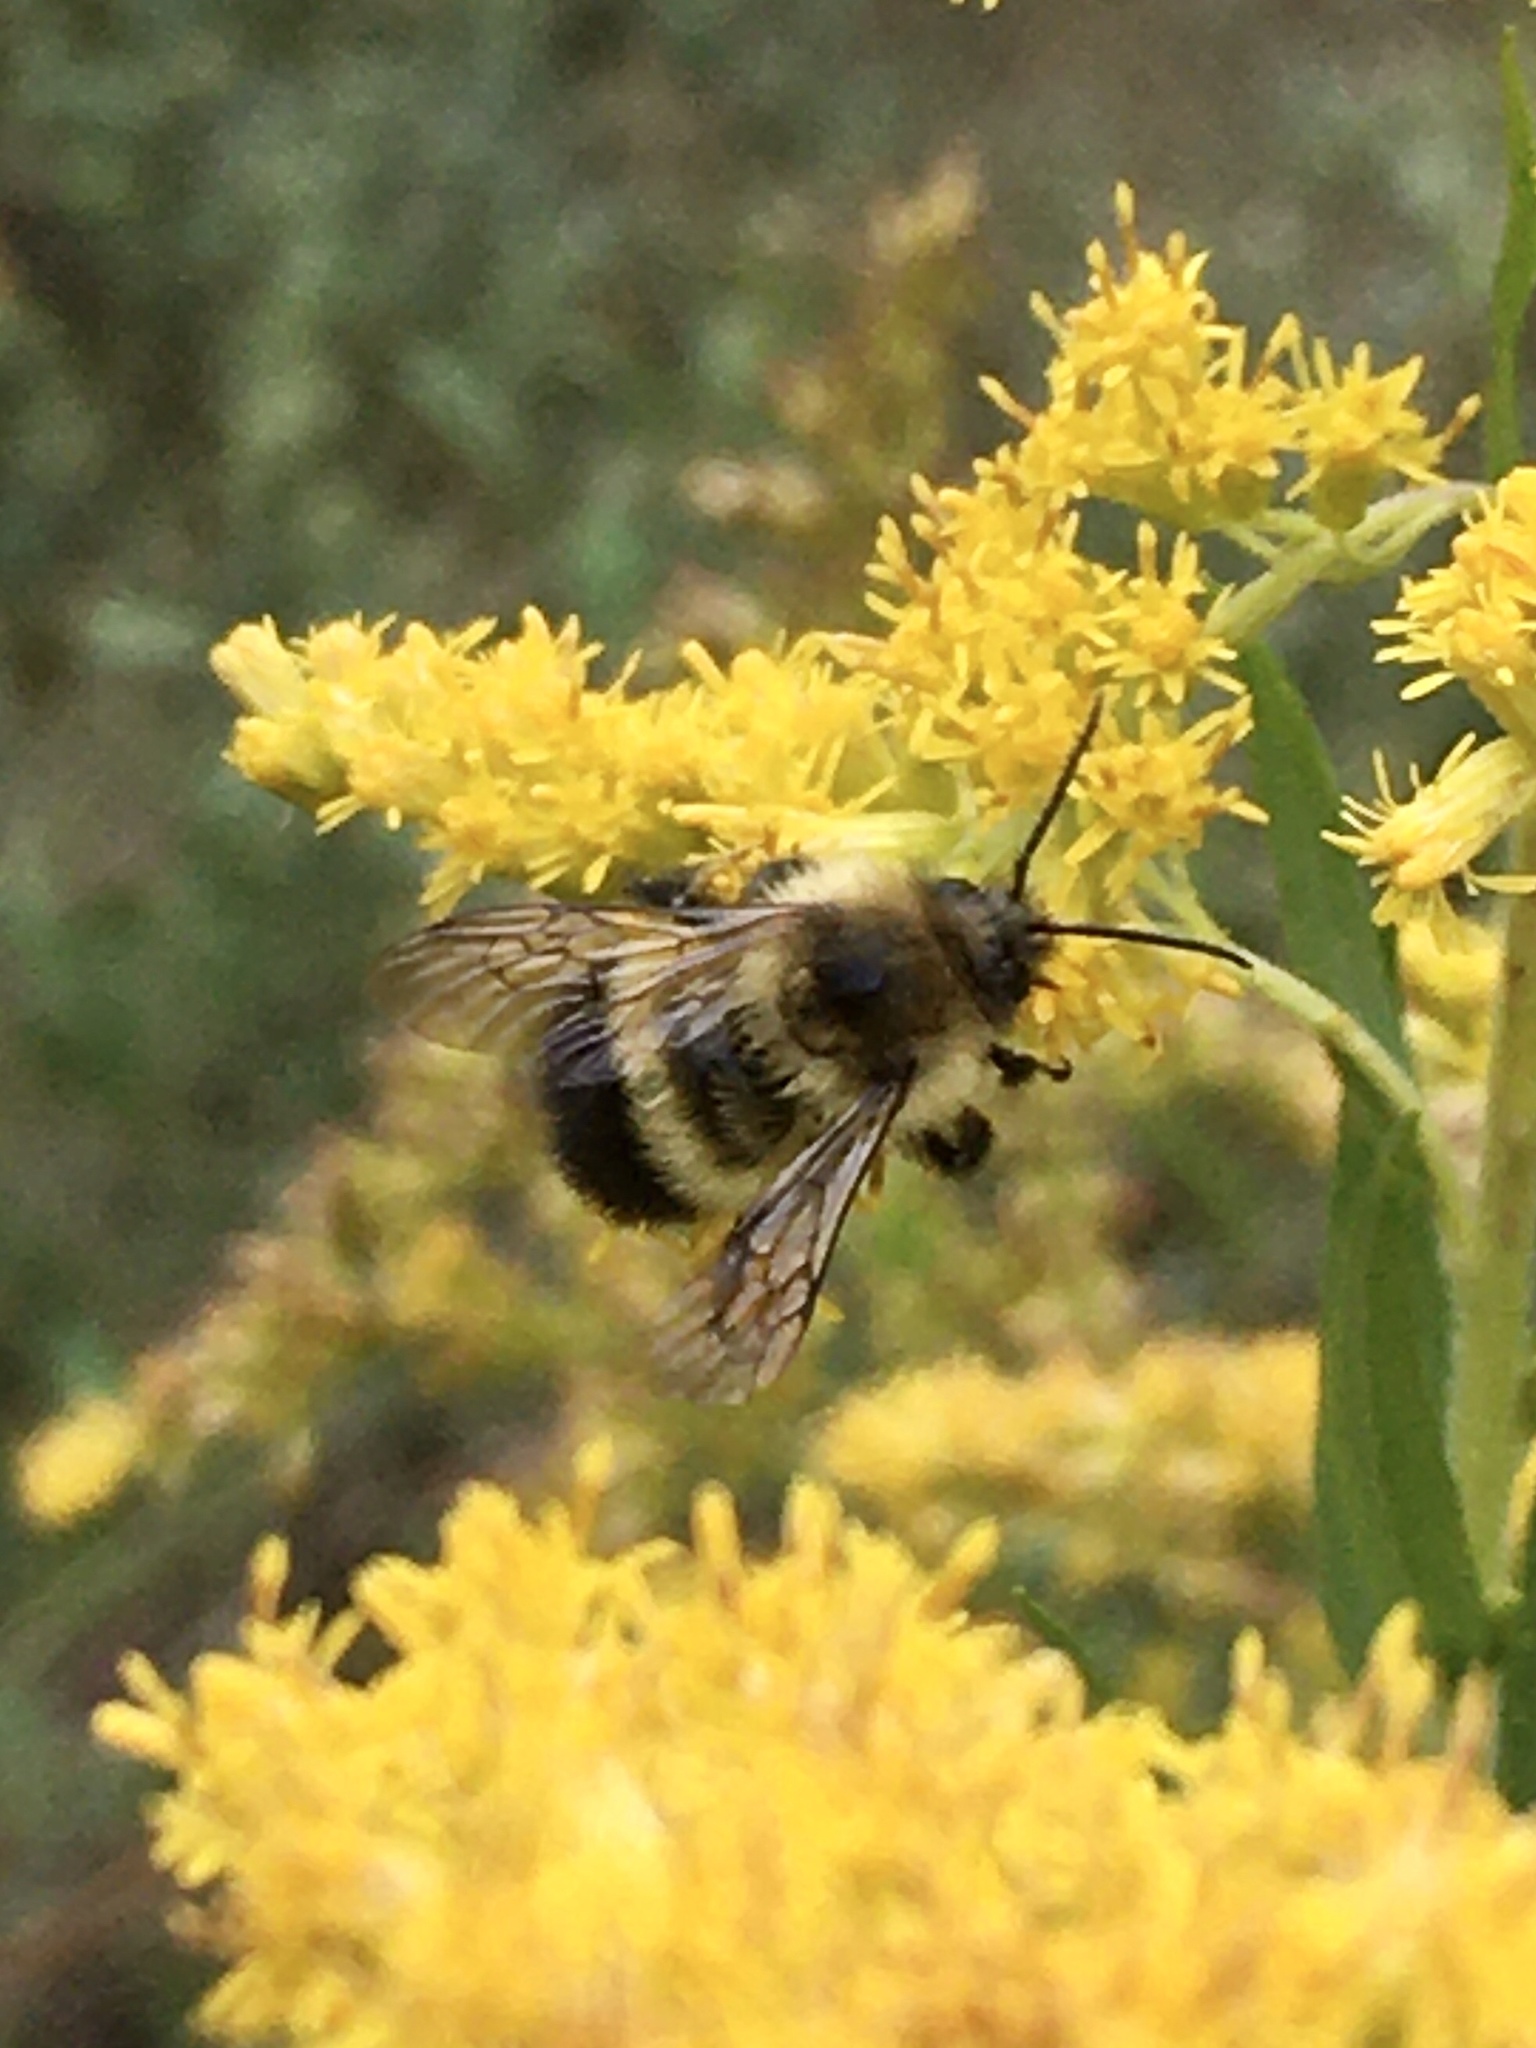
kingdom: Animalia
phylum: Arthropoda
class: Insecta
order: Hymenoptera
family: Apidae
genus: Pyrobombus
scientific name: Pyrobombus
